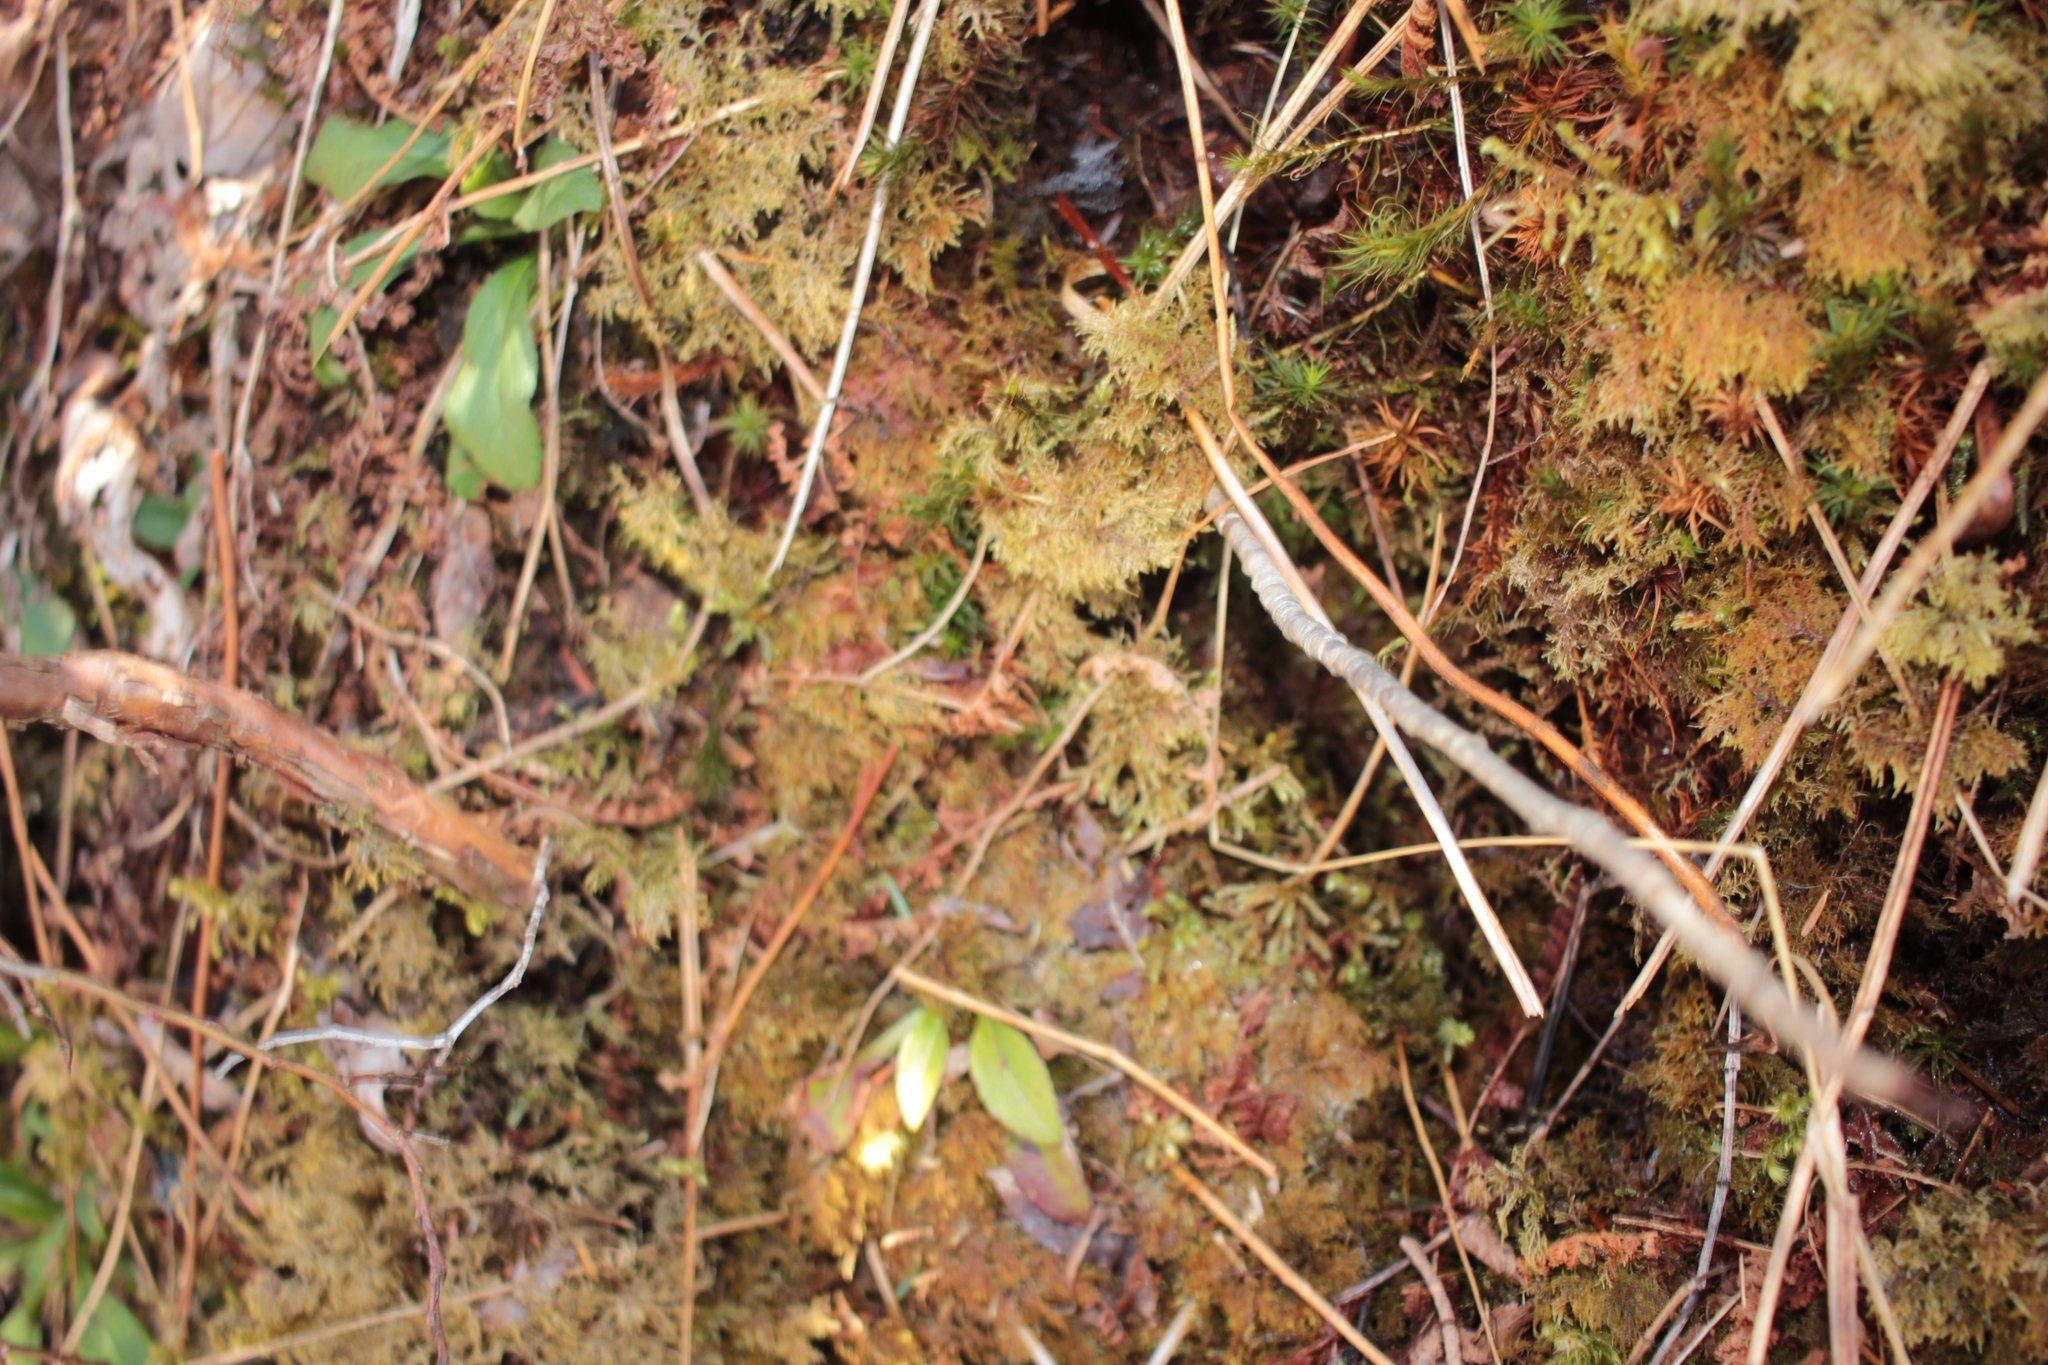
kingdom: Plantae
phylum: Bryophyta
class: Bryopsida
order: Hypnales
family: Hylocomiaceae
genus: Hylocomium
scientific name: Hylocomium splendens
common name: Stairstep moss
